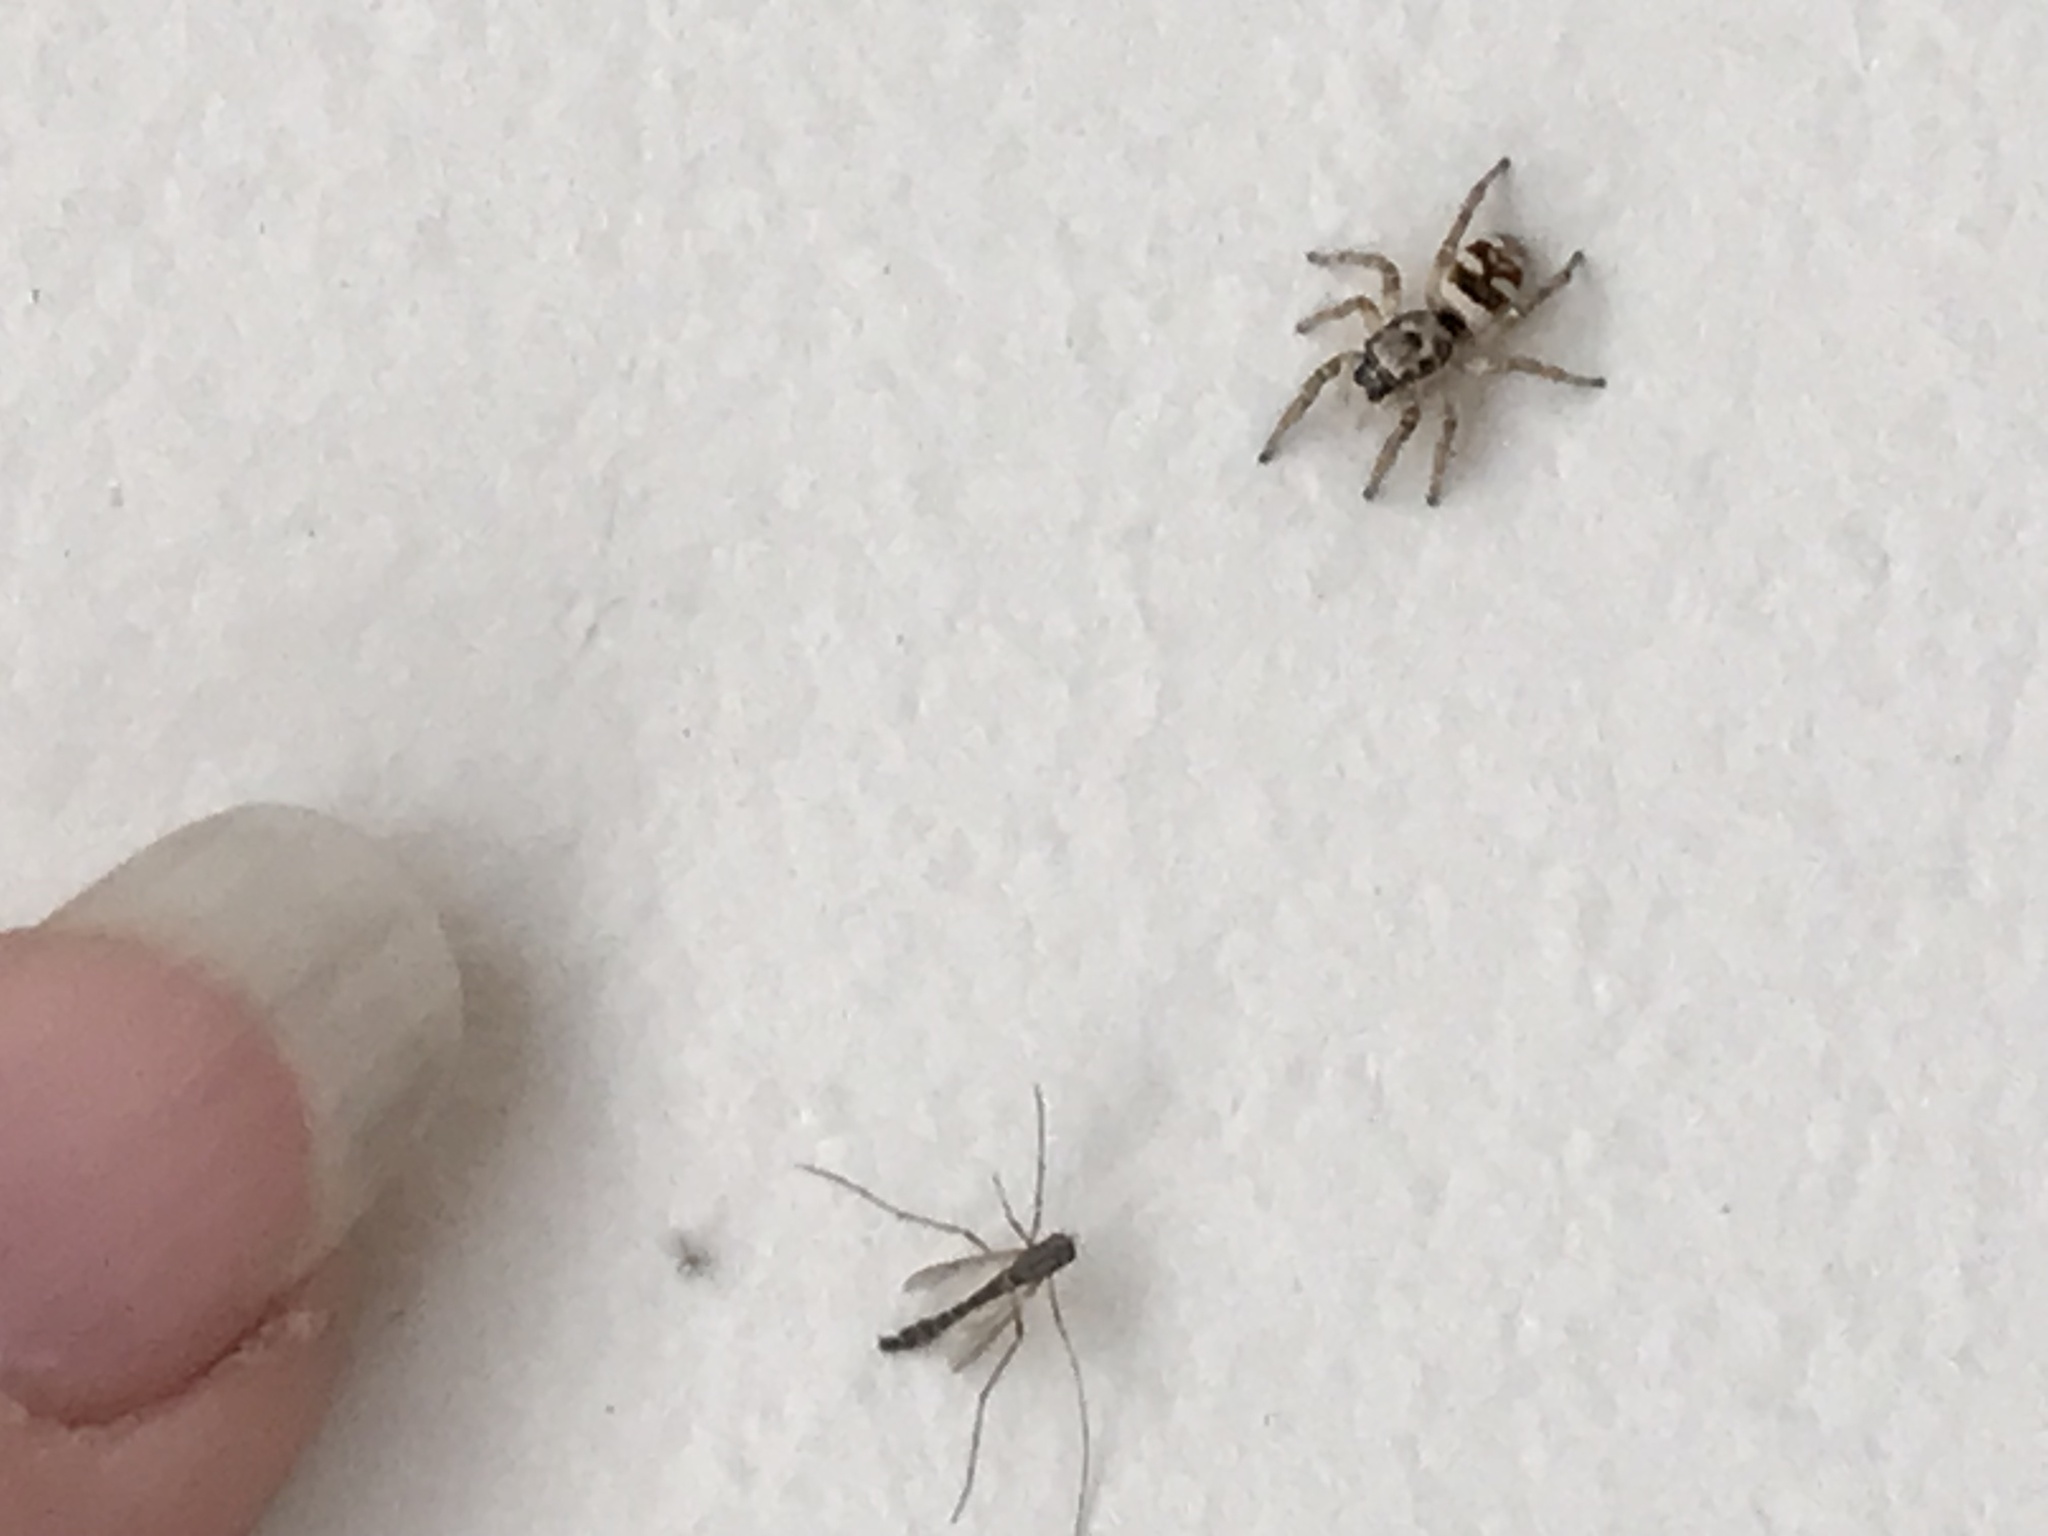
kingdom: Animalia
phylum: Arthropoda
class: Arachnida
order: Araneae
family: Salticidae
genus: Salticus
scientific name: Salticus scenicus
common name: Zebra jumper
